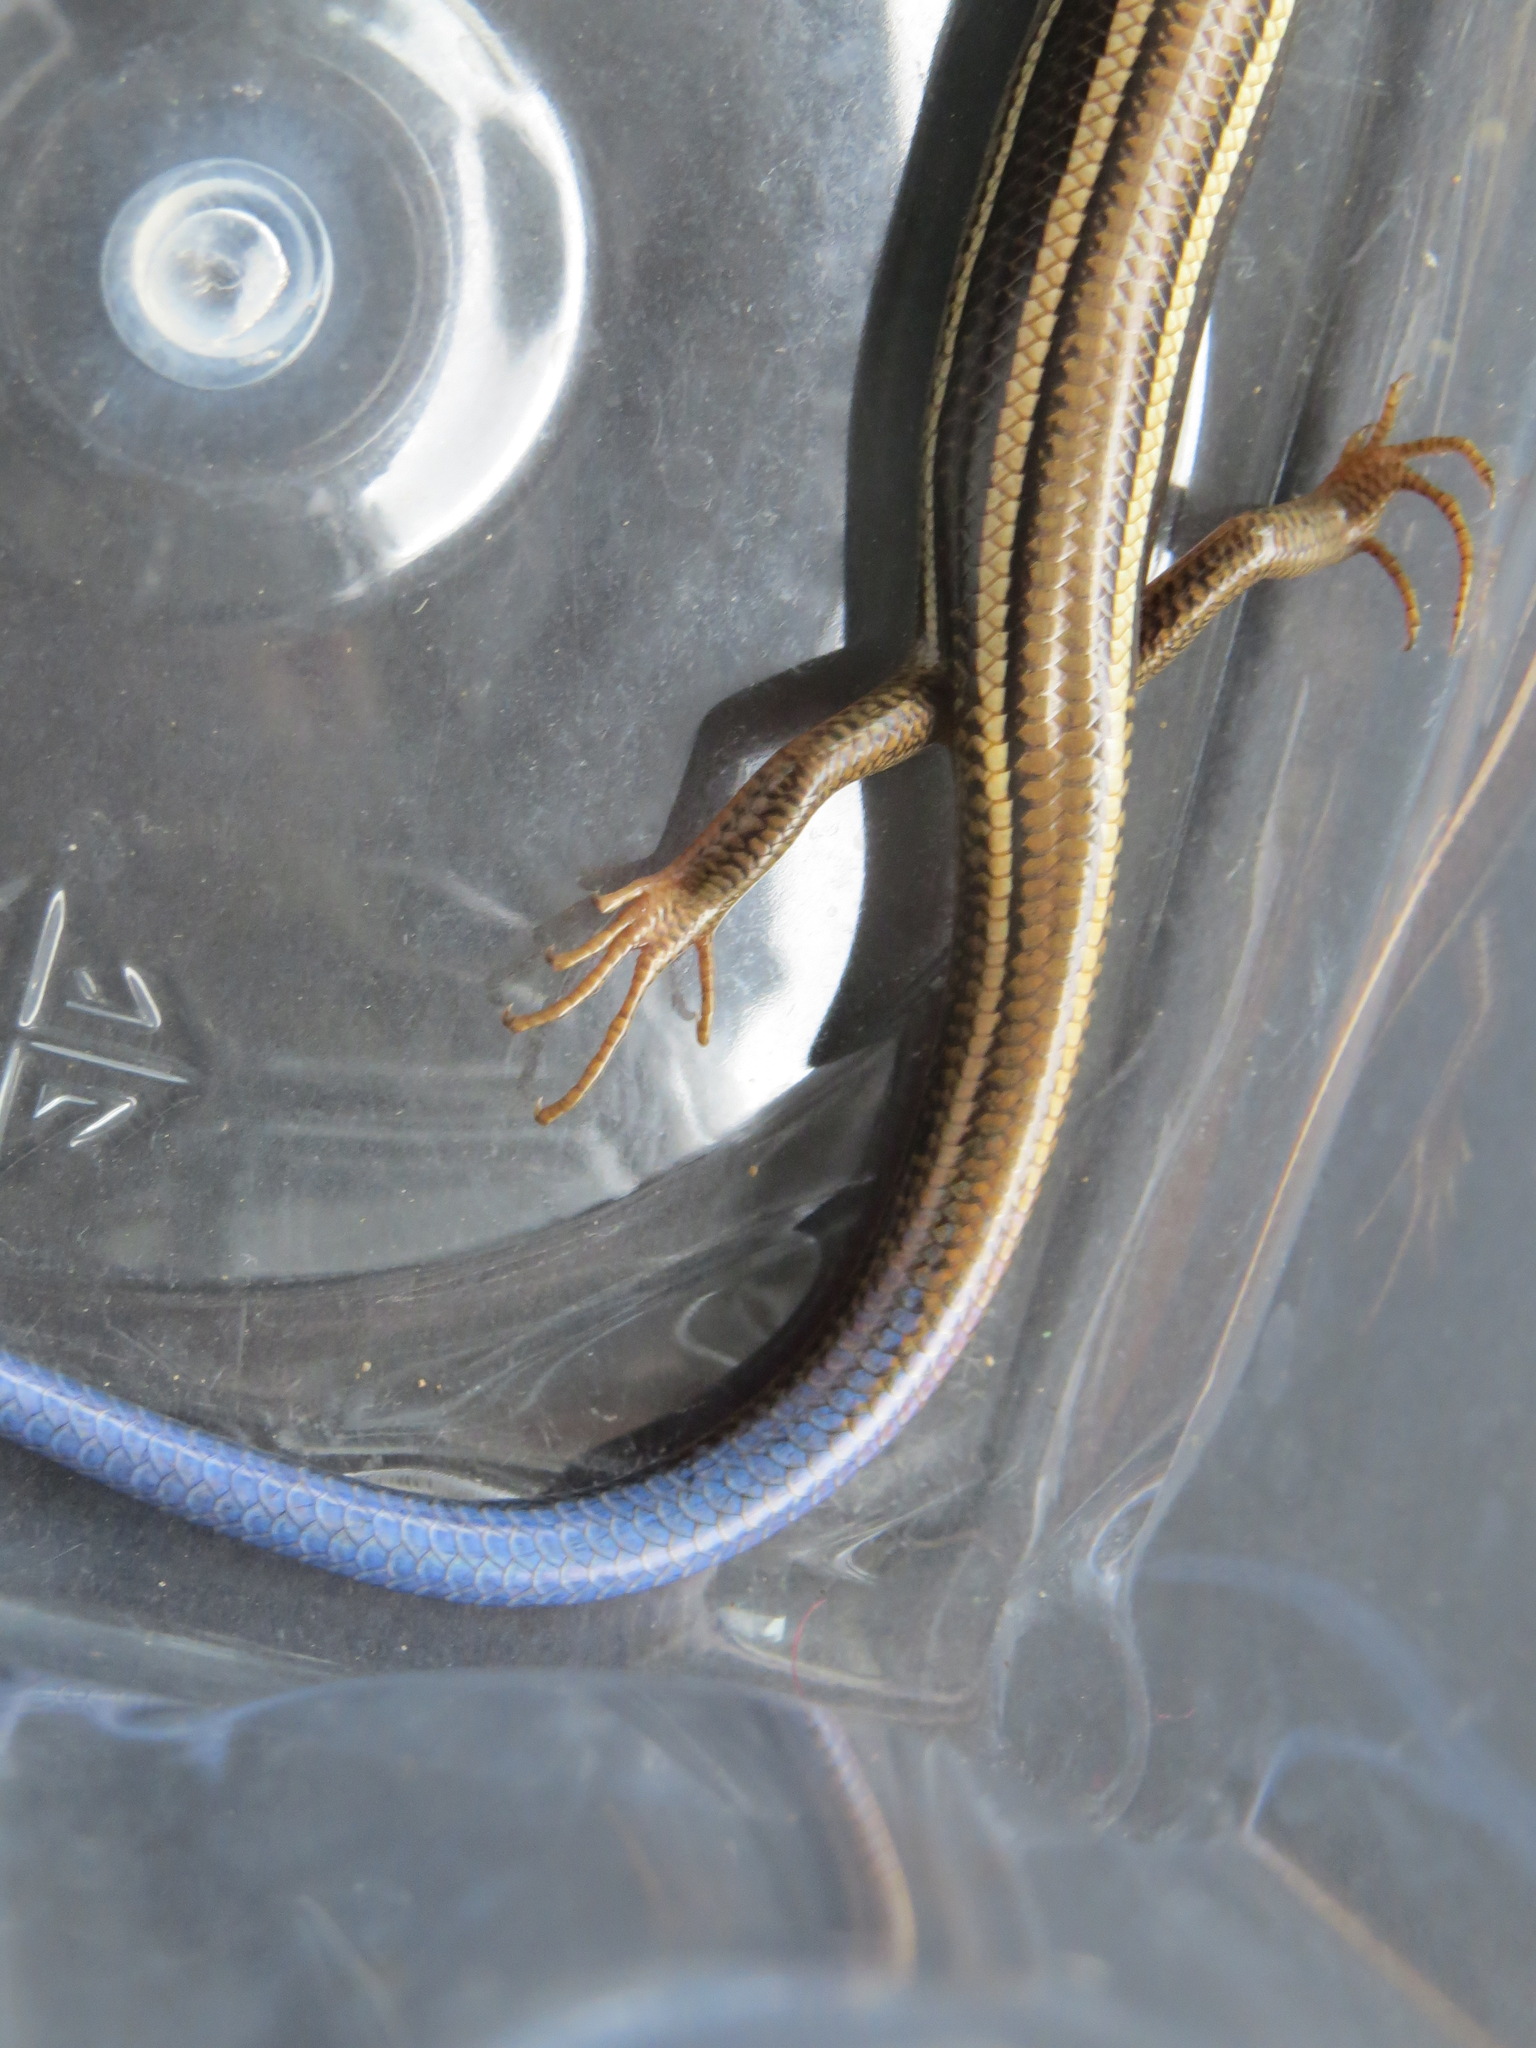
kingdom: Animalia
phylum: Chordata
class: Squamata
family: Scincidae
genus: Plestiodon
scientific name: Plestiodon skiltonianus
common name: Coronado island skink [interparietalis]
